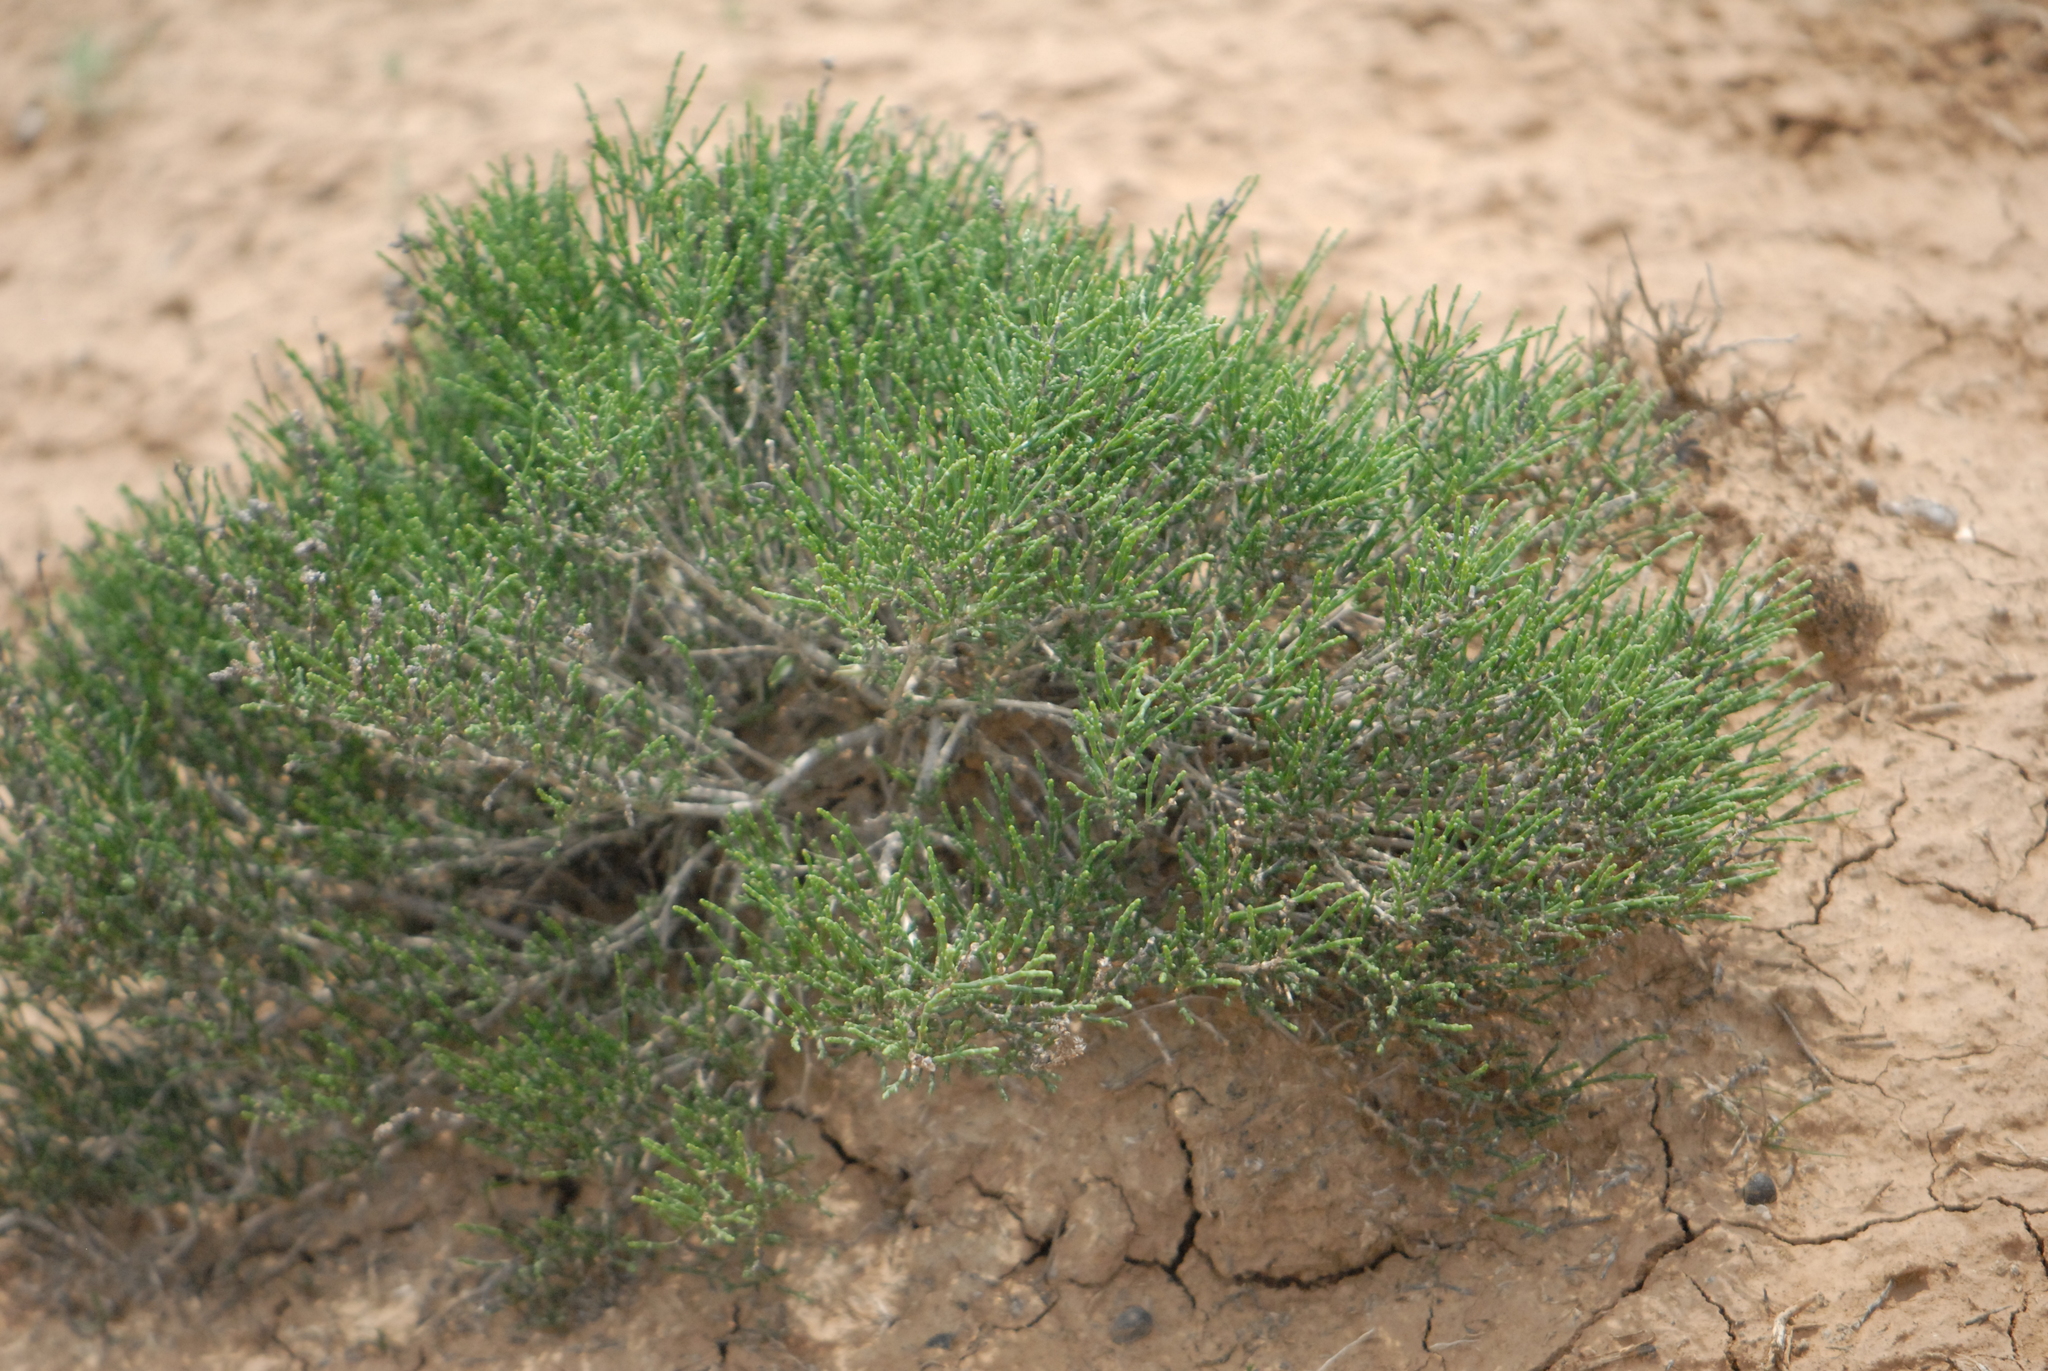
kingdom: Plantae
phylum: Tracheophyta
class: Magnoliopsida
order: Caryophyllales
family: Amaranthaceae
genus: Salicornia
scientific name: Salicornia perennans
